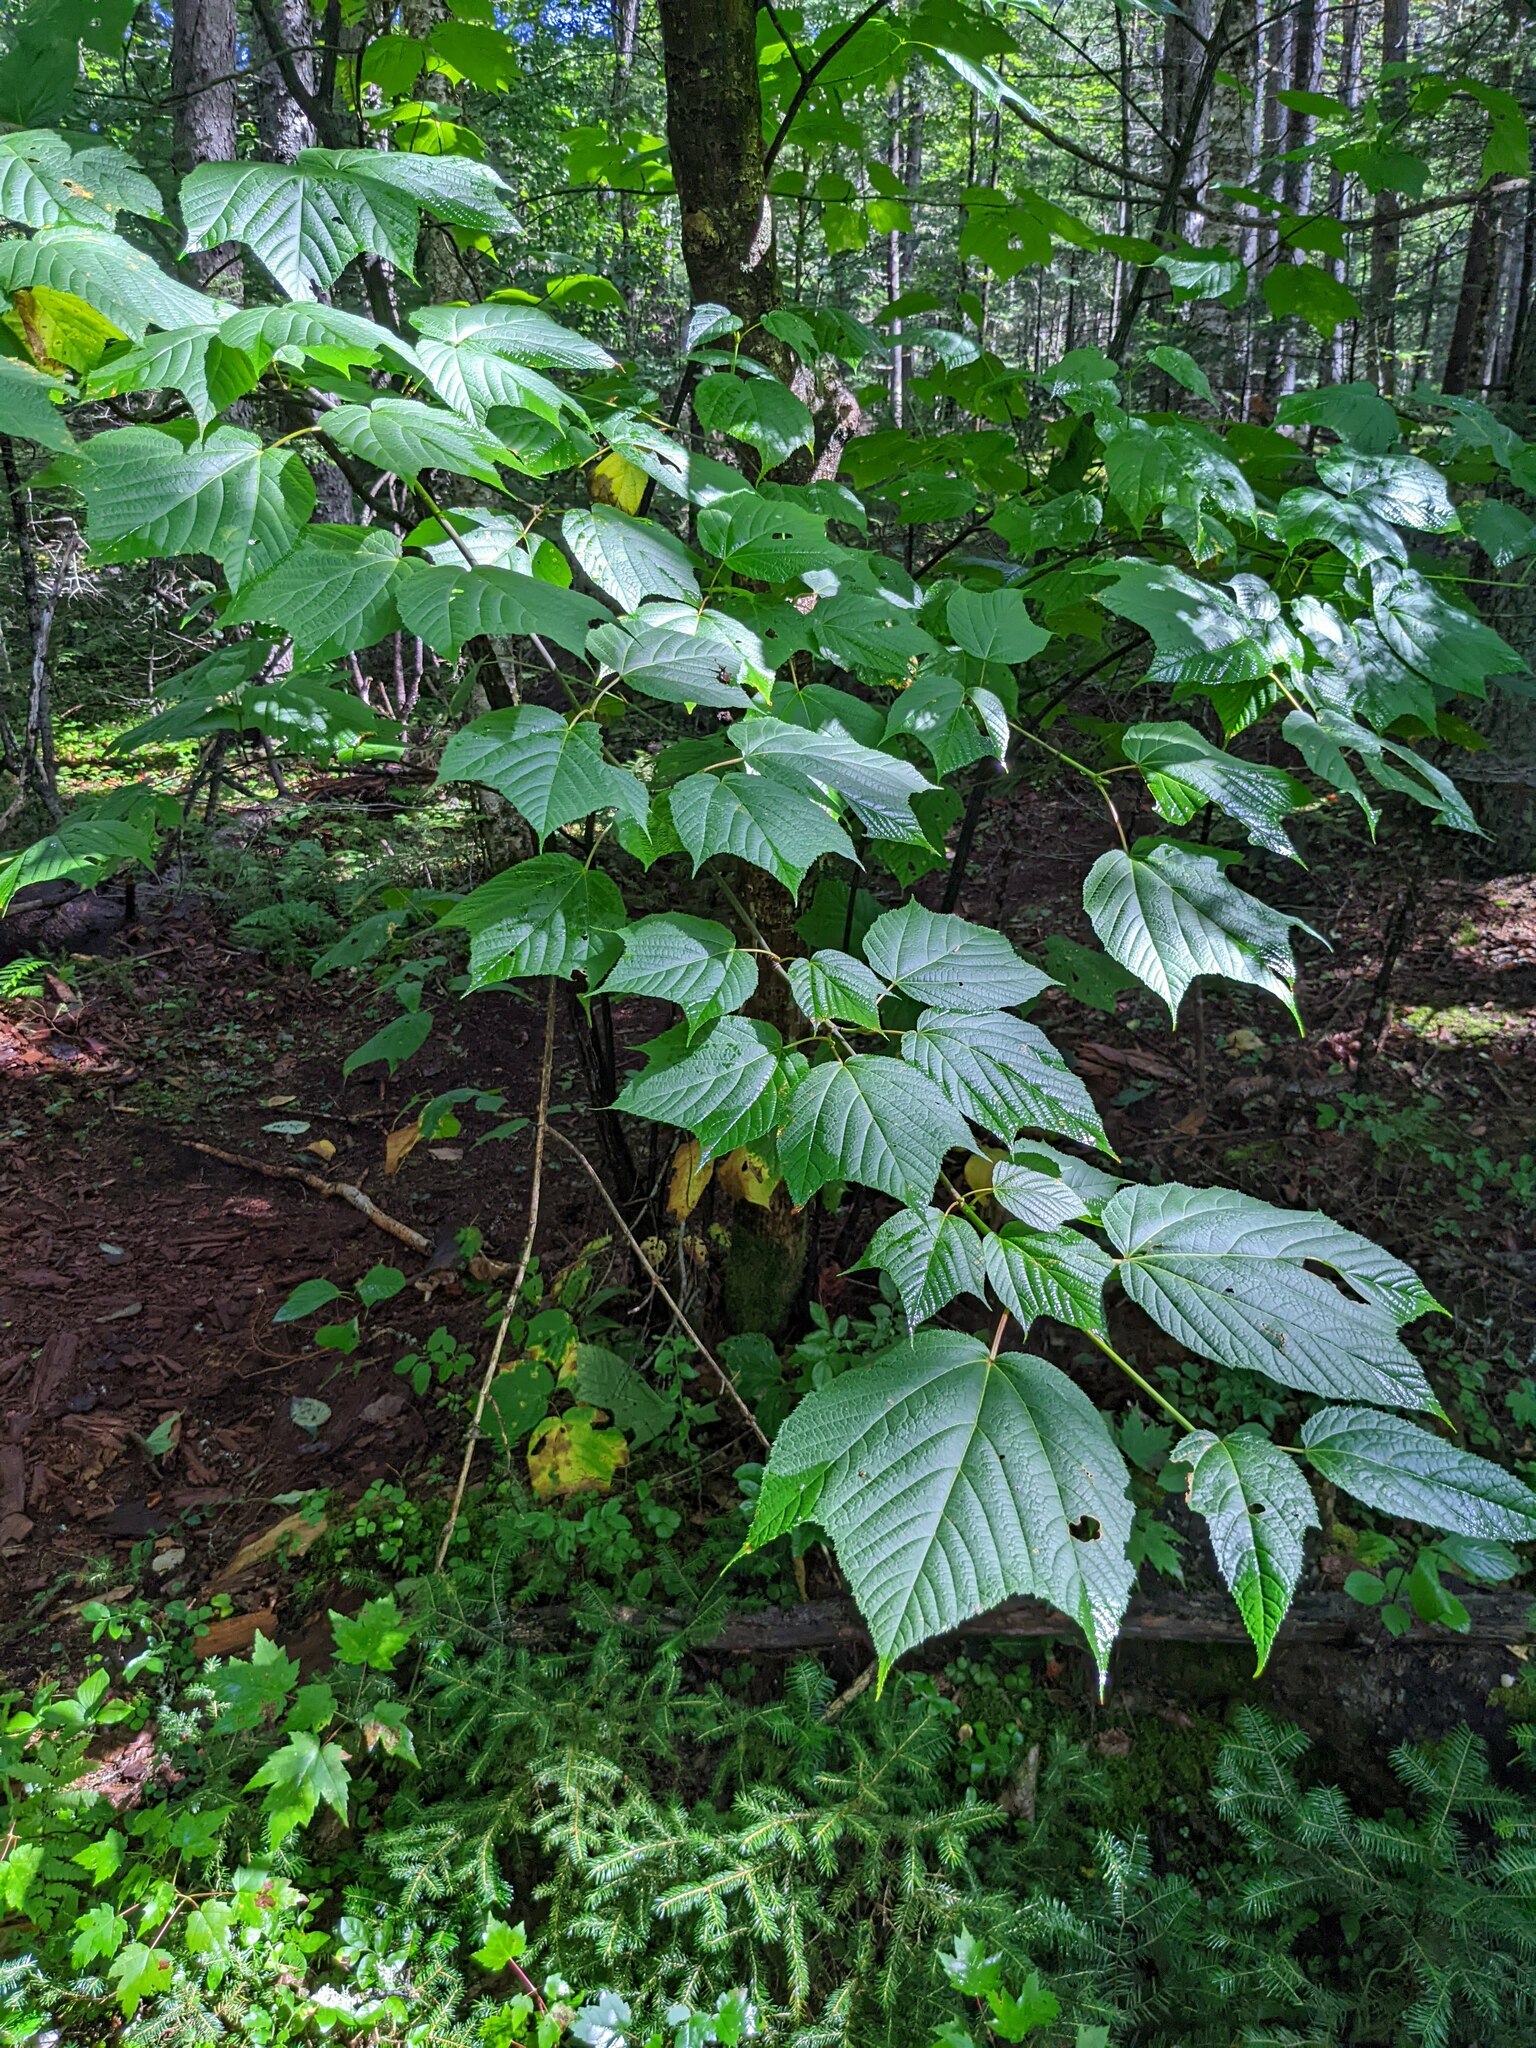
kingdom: Plantae
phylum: Tracheophyta
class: Magnoliopsida
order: Sapindales
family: Sapindaceae
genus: Acer
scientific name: Acer pensylvanicum
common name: Moosewood
